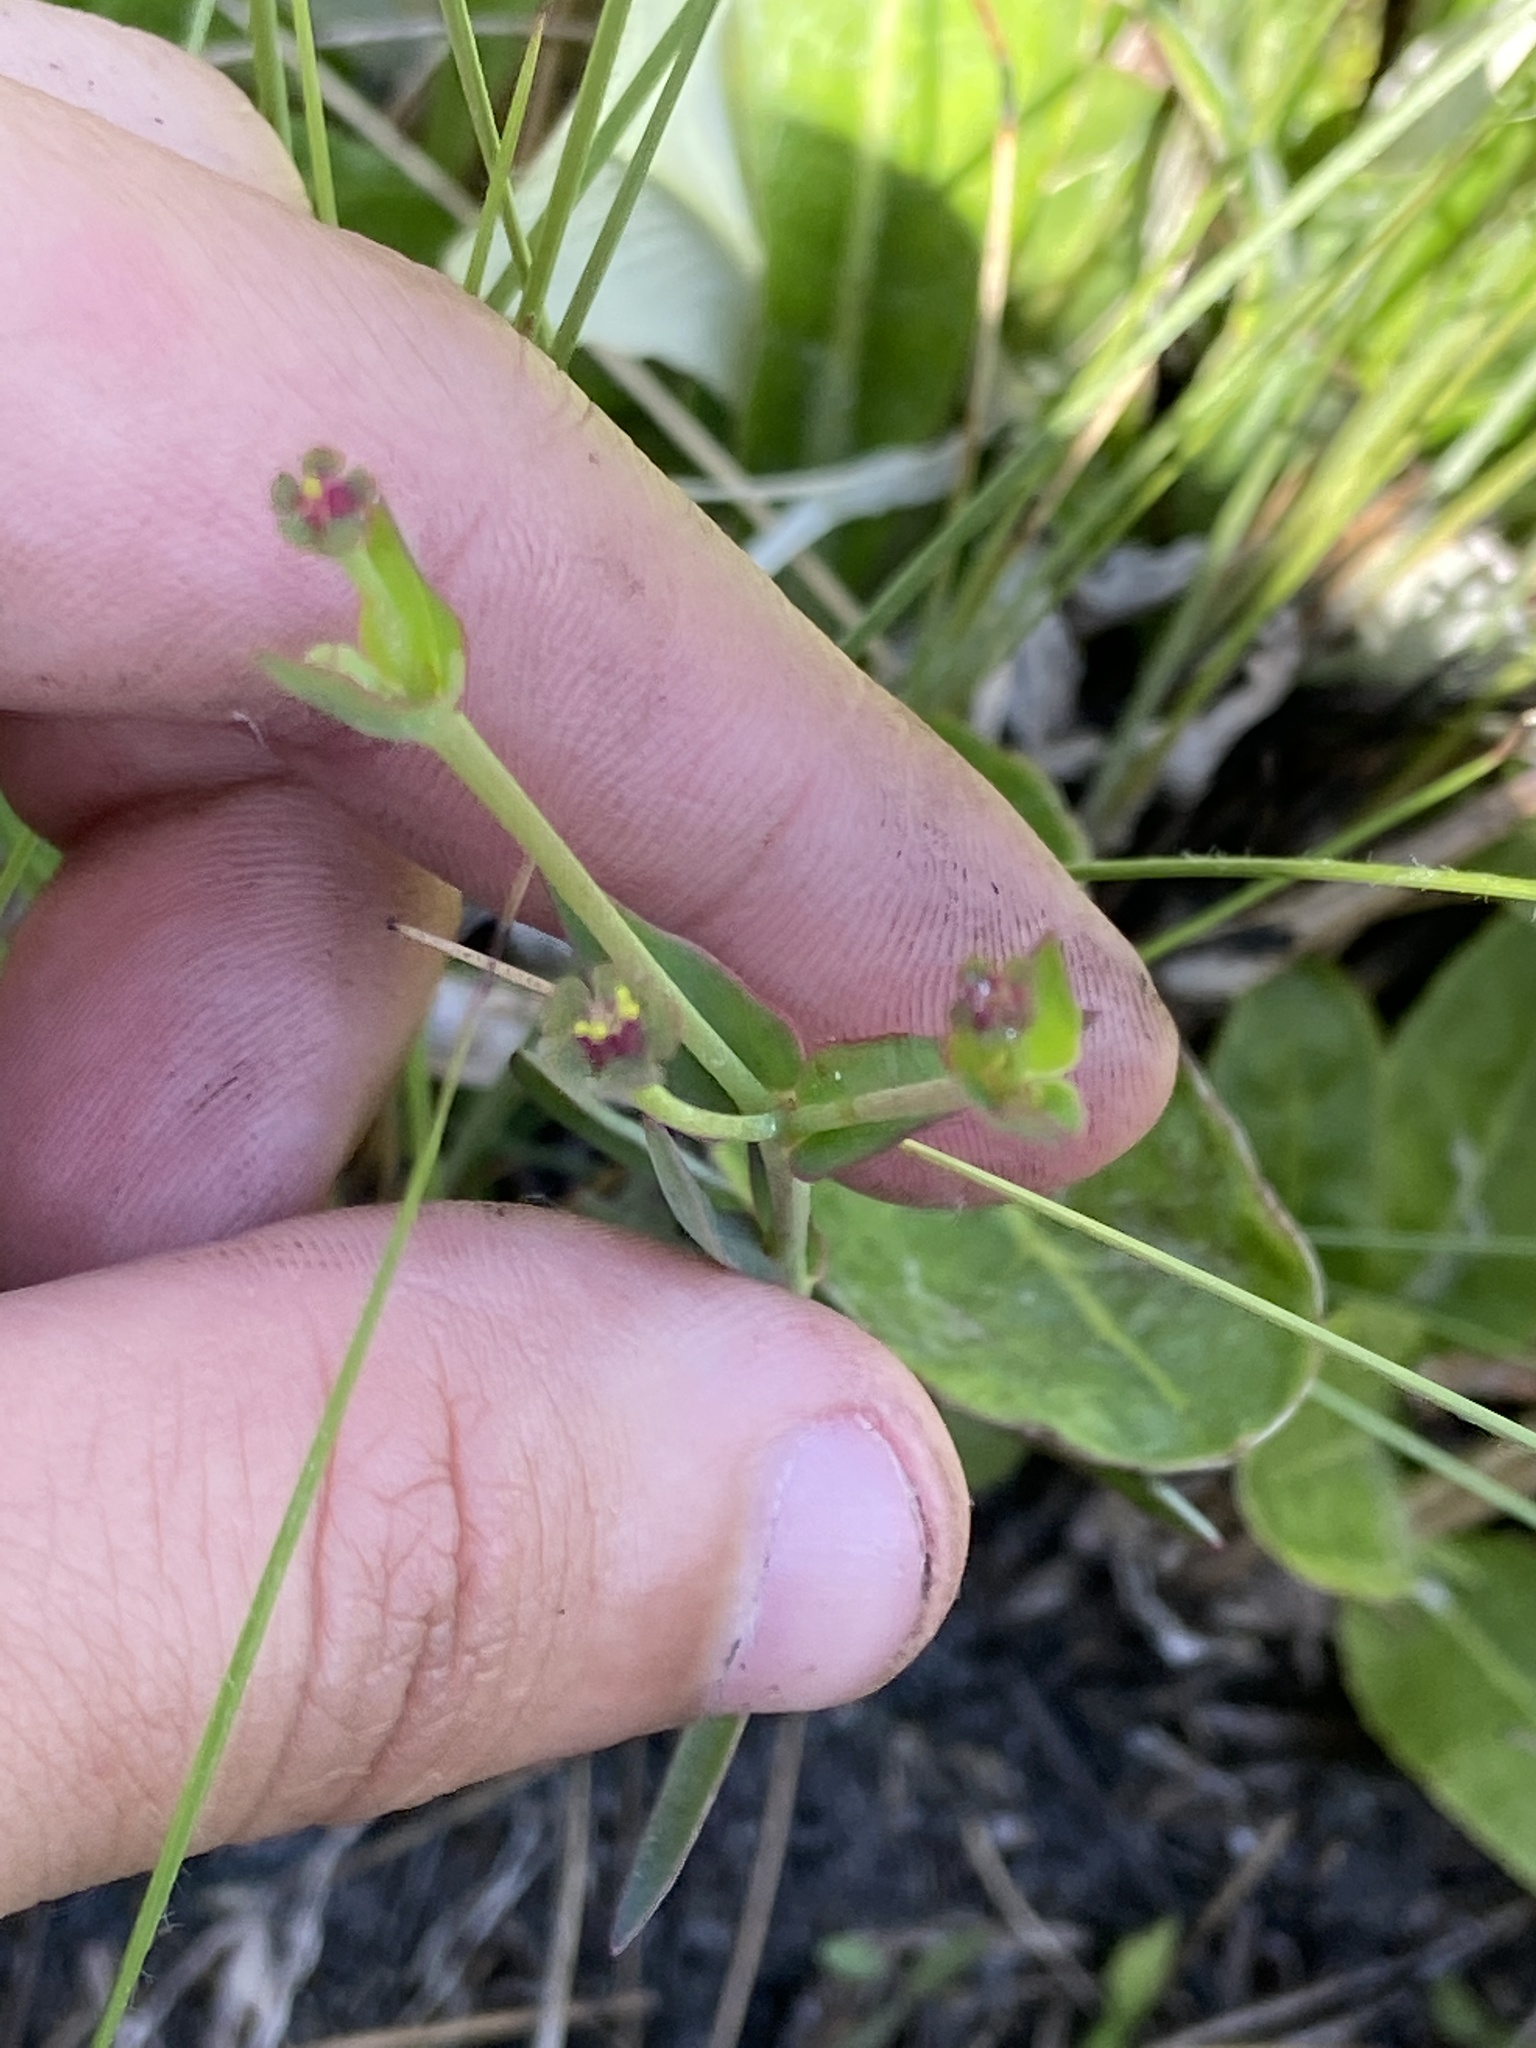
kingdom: Plantae
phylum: Tracheophyta
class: Magnoliopsida
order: Malpighiales
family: Euphorbiaceae
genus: Euphorbia
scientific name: Euphorbia inundata
